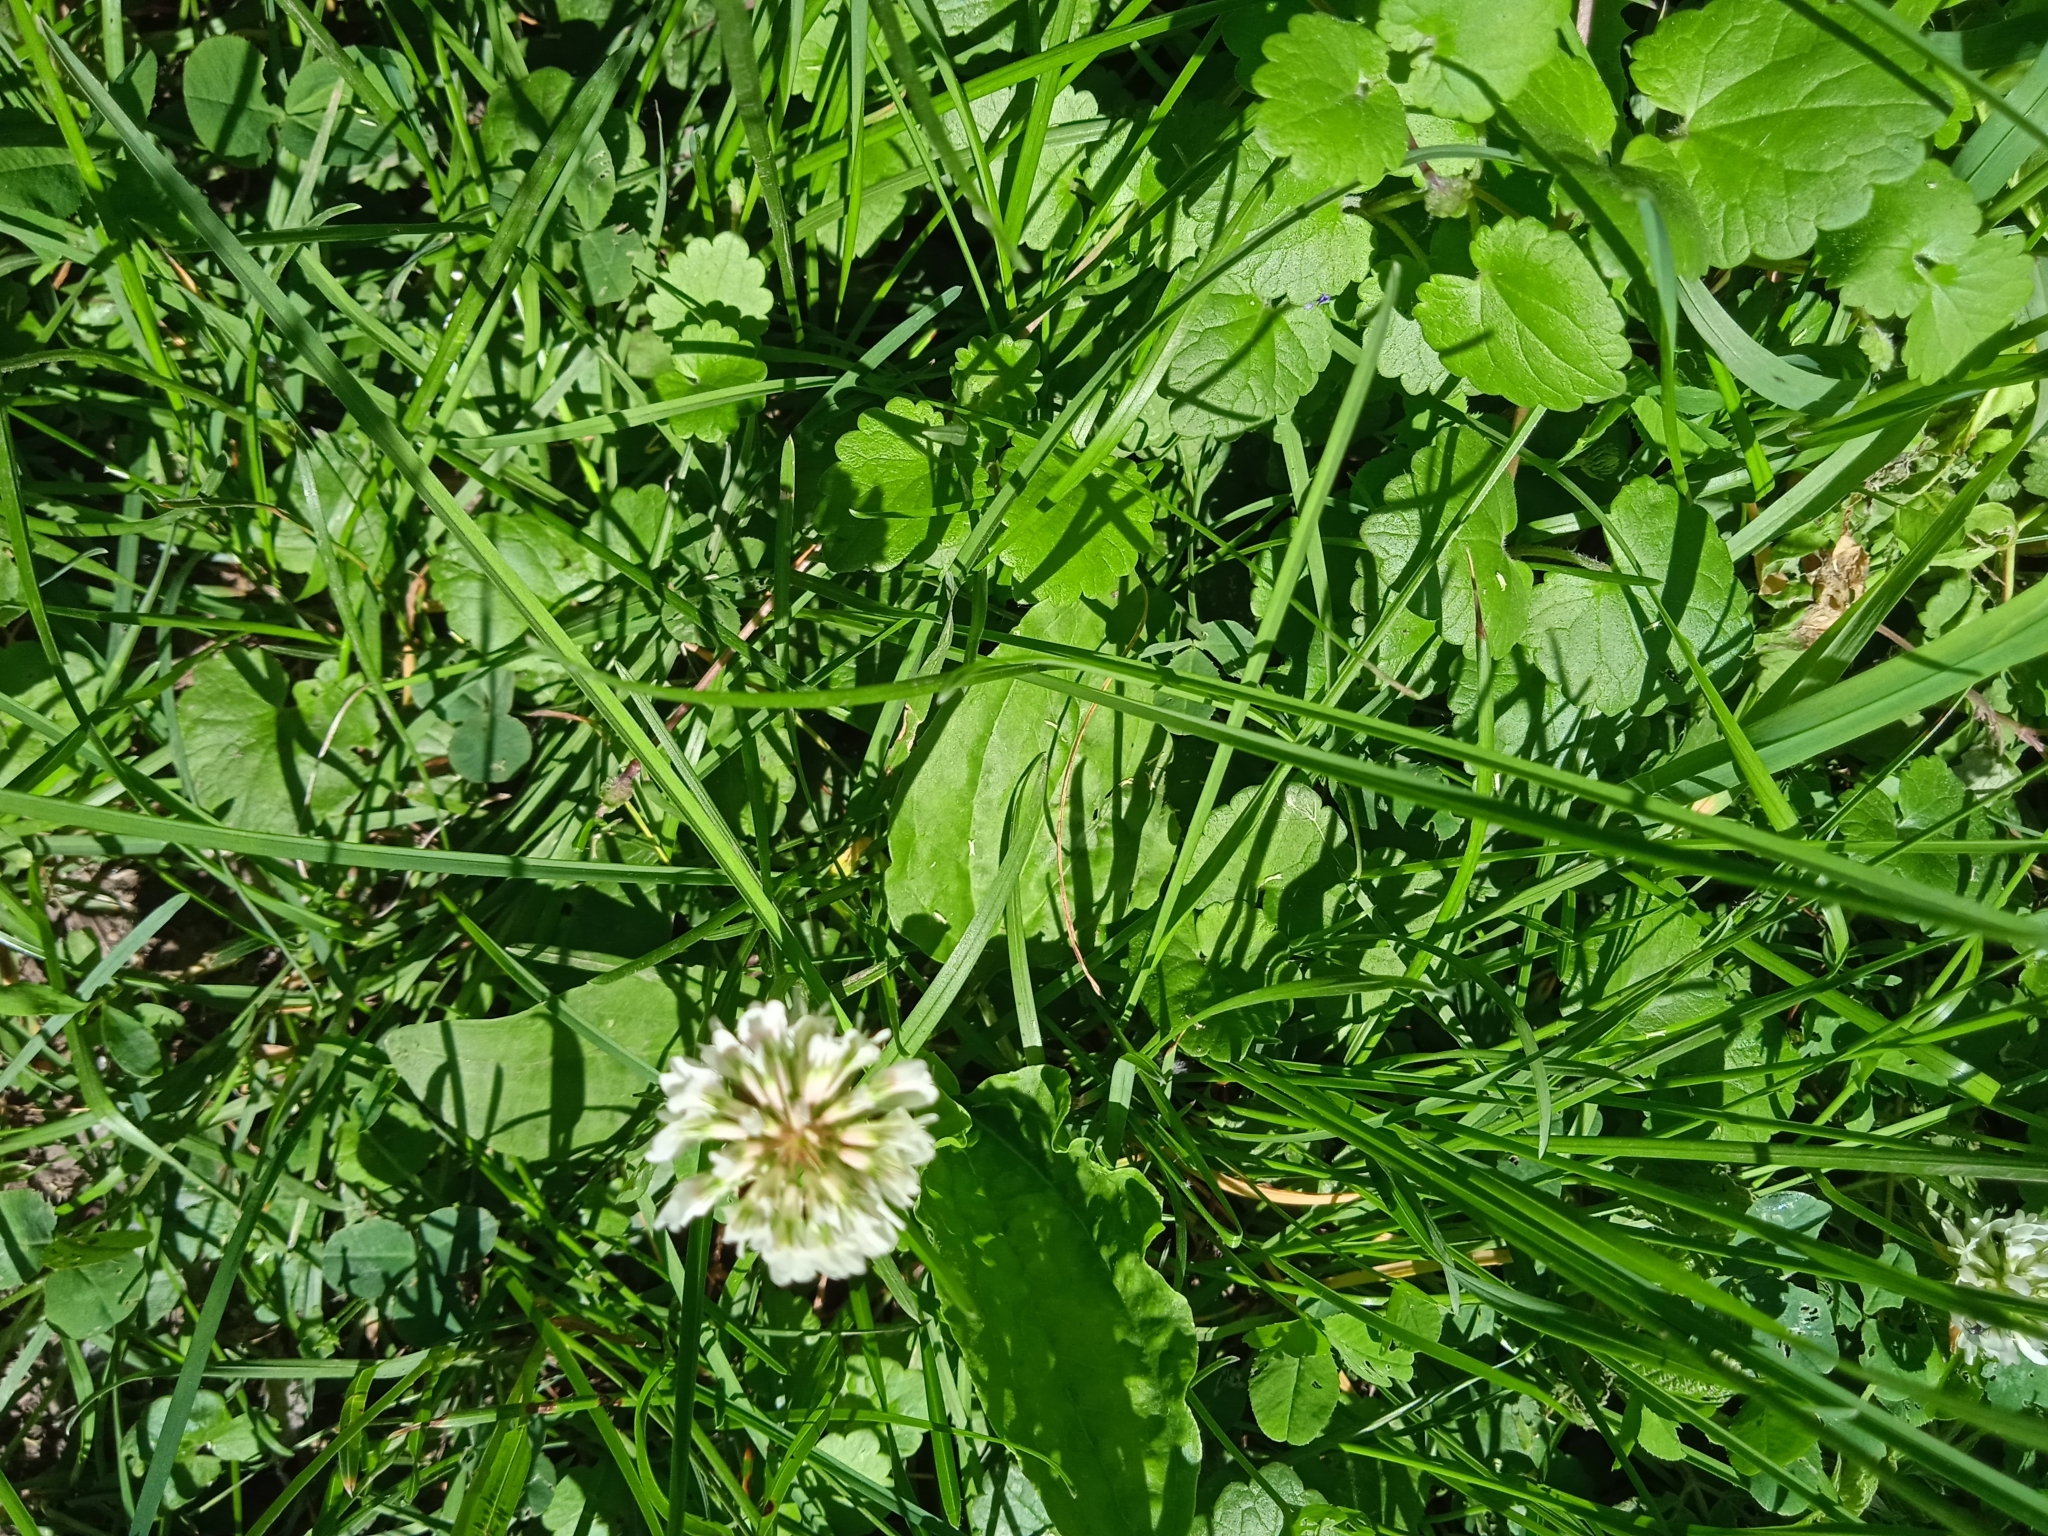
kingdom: Plantae
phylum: Tracheophyta
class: Magnoliopsida
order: Fabales
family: Fabaceae
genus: Trifolium
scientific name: Trifolium repens
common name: White clover
